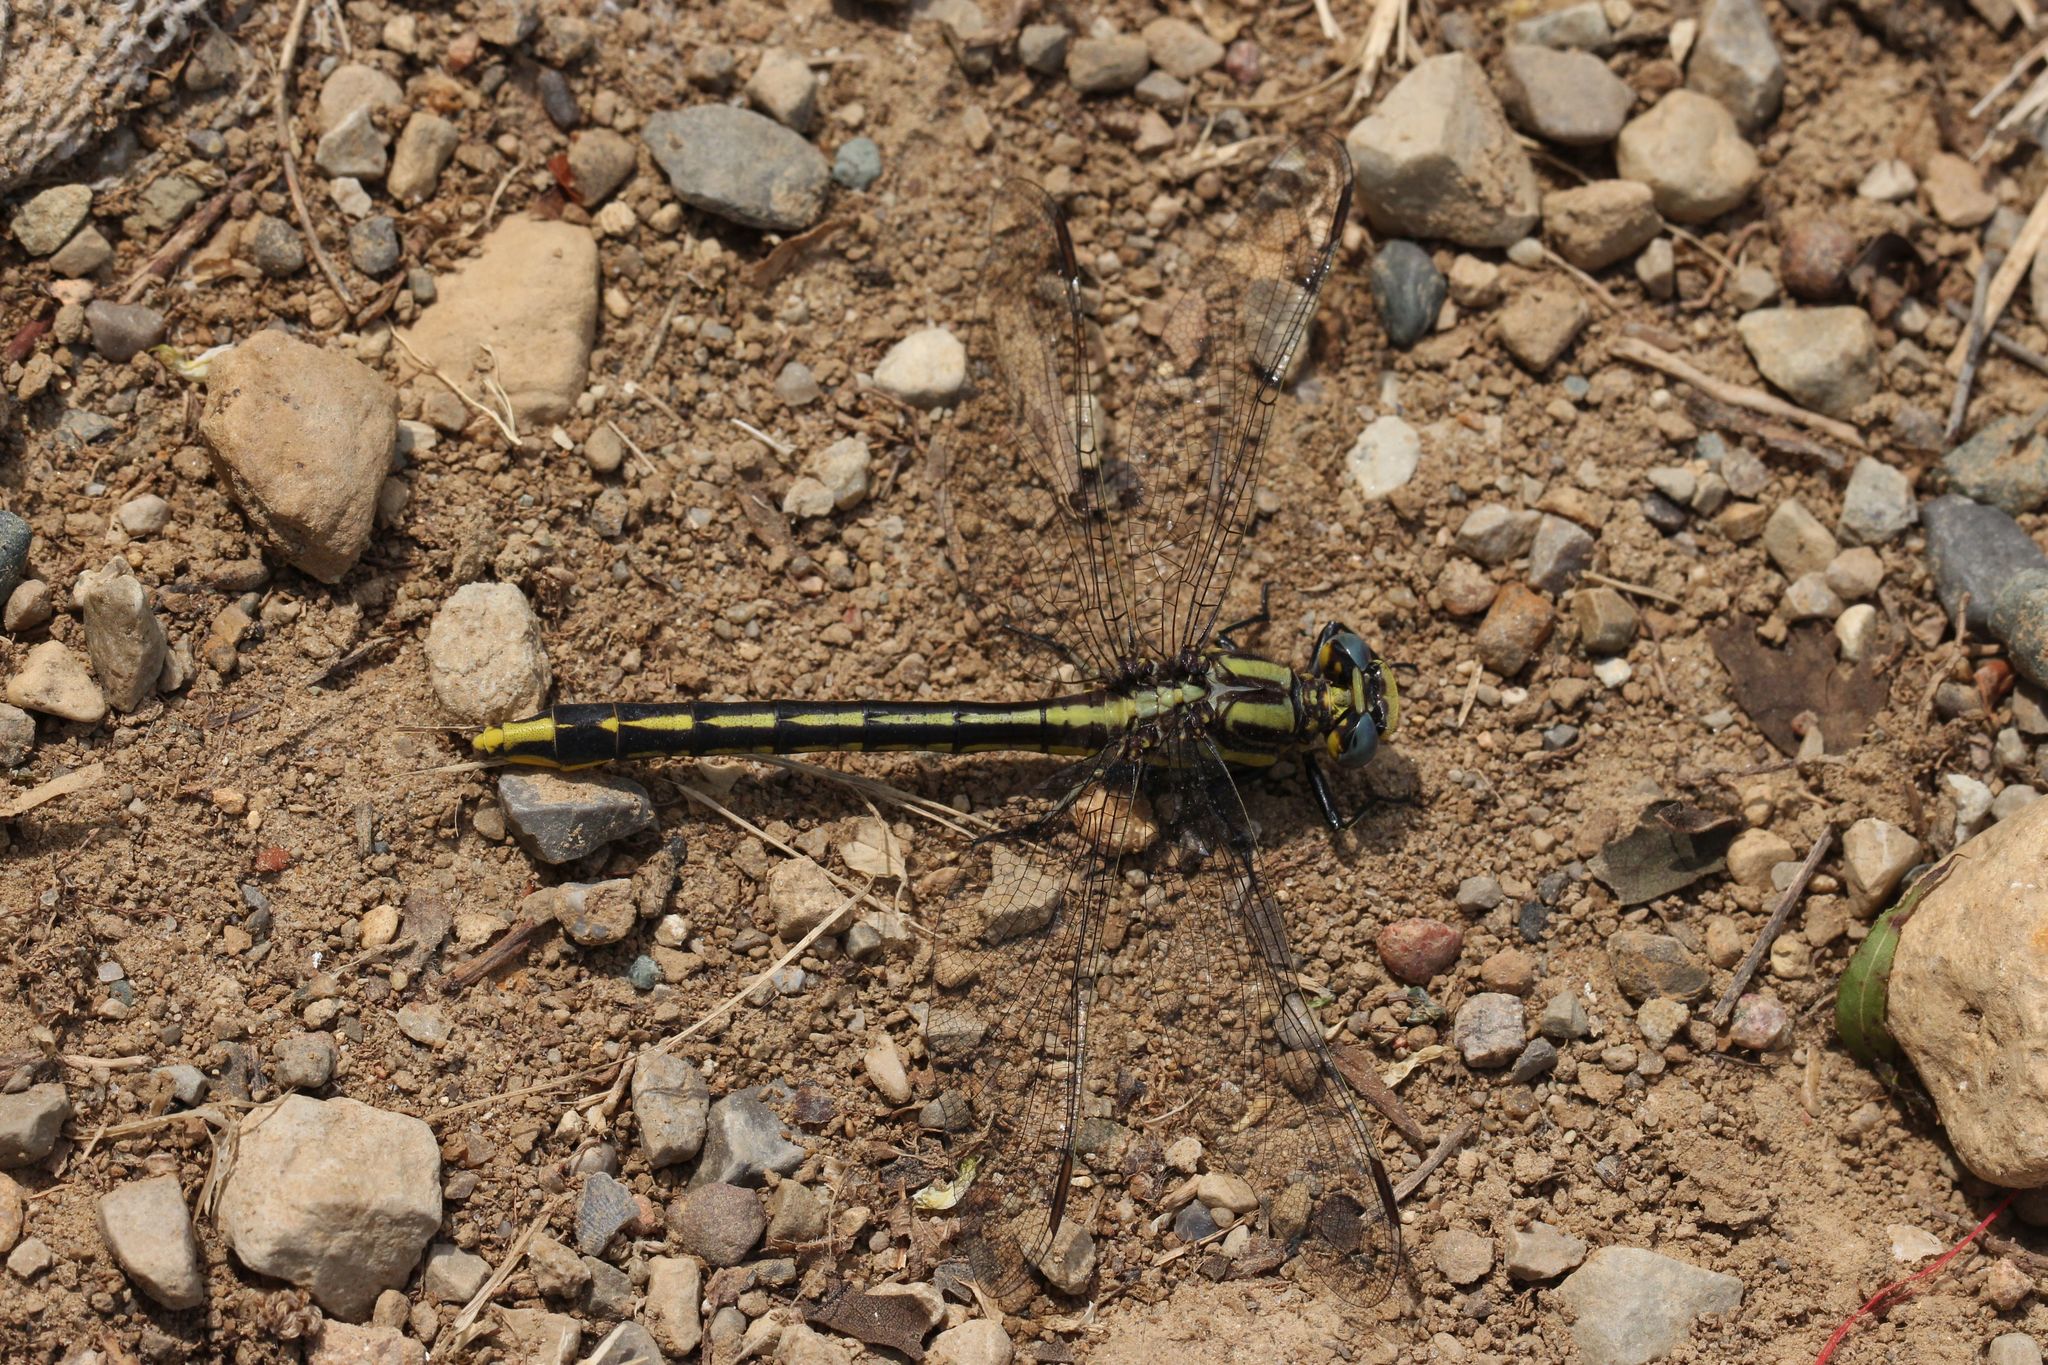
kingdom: Animalia
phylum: Arthropoda
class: Insecta
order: Odonata
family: Gomphidae
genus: Phanogomphus
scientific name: Phanogomphus graslinellus
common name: Pronghorn clubtail
